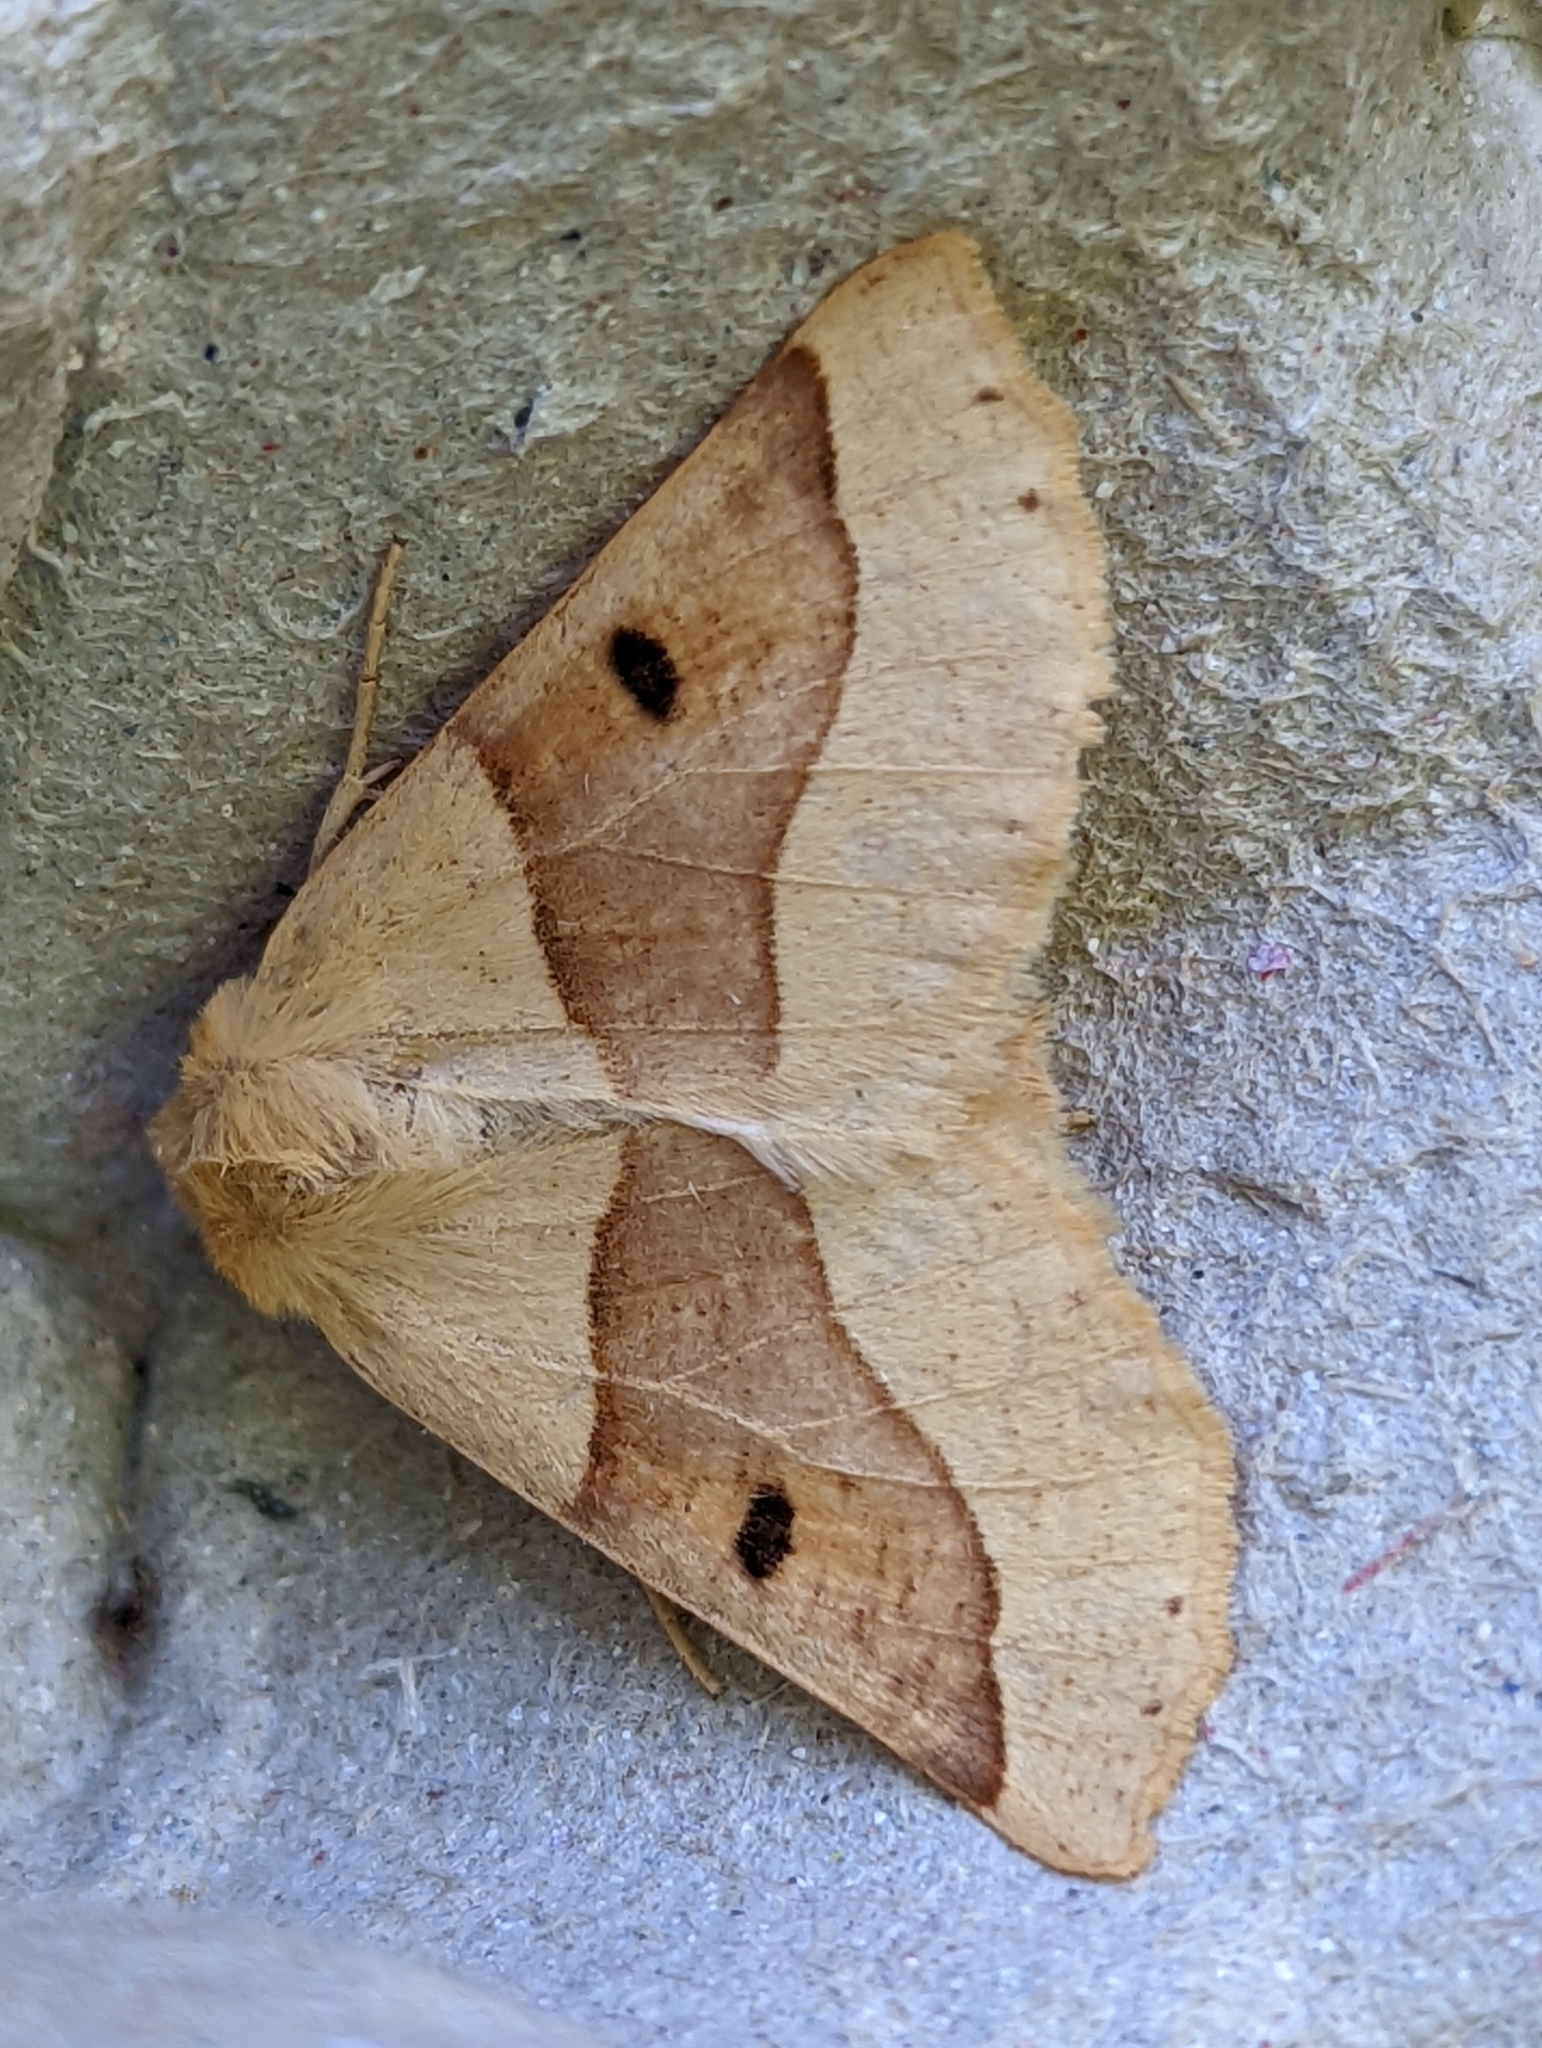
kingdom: Animalia
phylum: Arthropoda
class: Insecta
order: Lepidoptera
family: Geometridae
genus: Crocallis
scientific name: Crocallis elinguaria
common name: Scalloped oak
